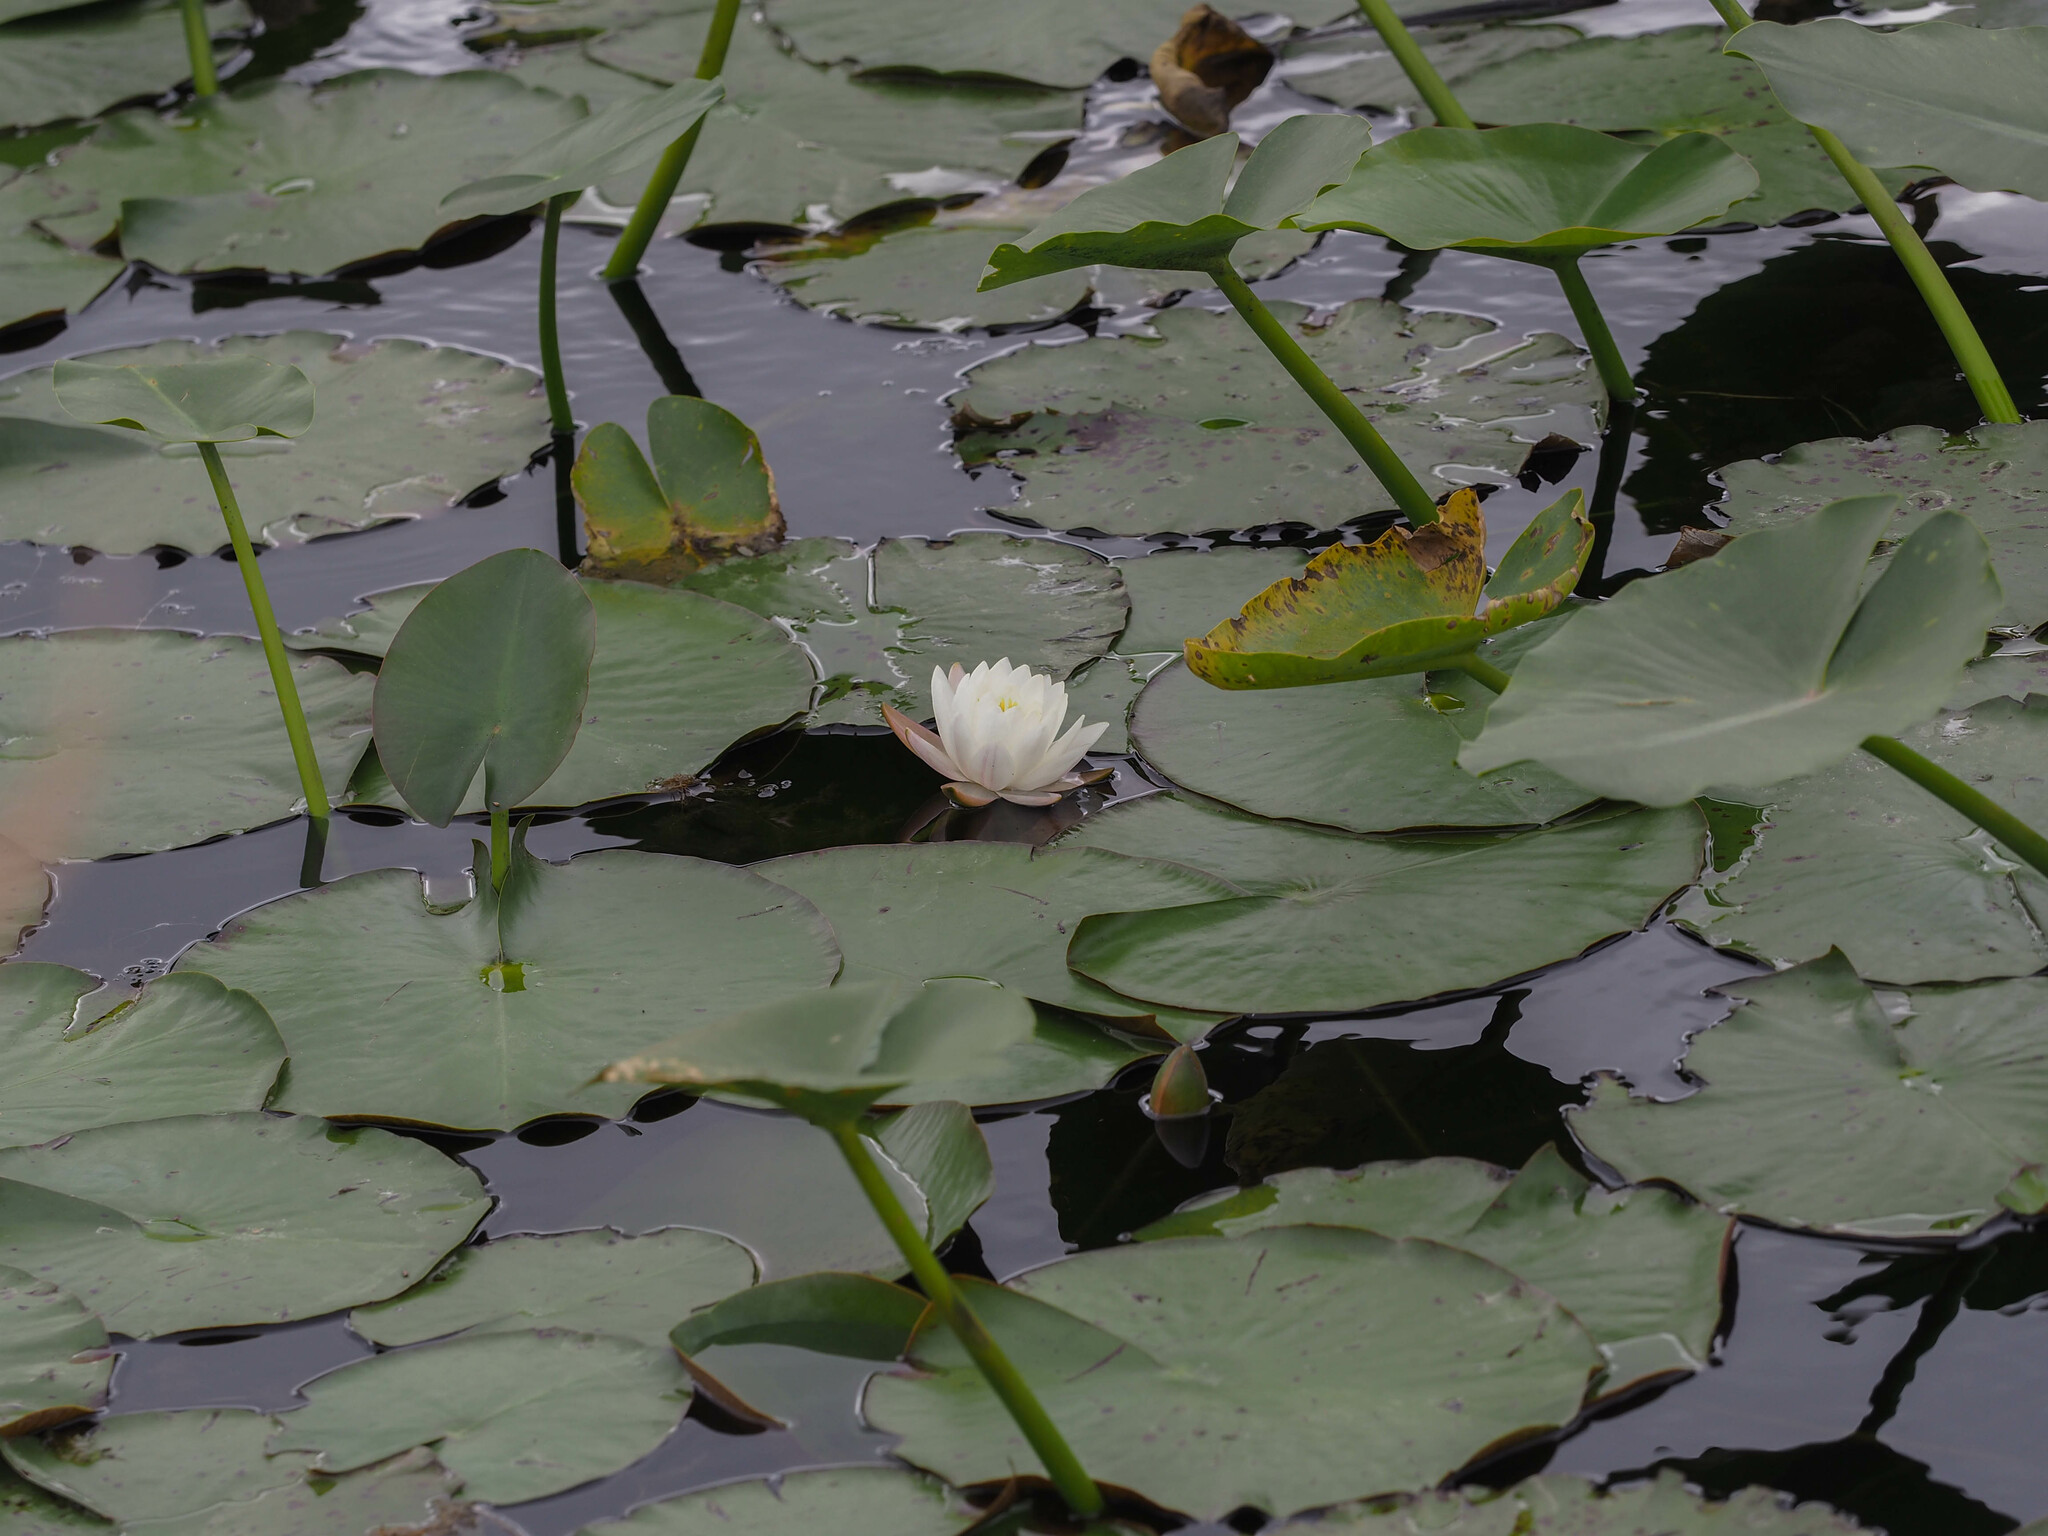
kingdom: Plantae
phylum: Tracheophyta
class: Magnoliopsida
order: Nymphaeales
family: Nymphaeaceae
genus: Nymphaea
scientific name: Nymphaea odorata
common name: Fragrant water-lily
